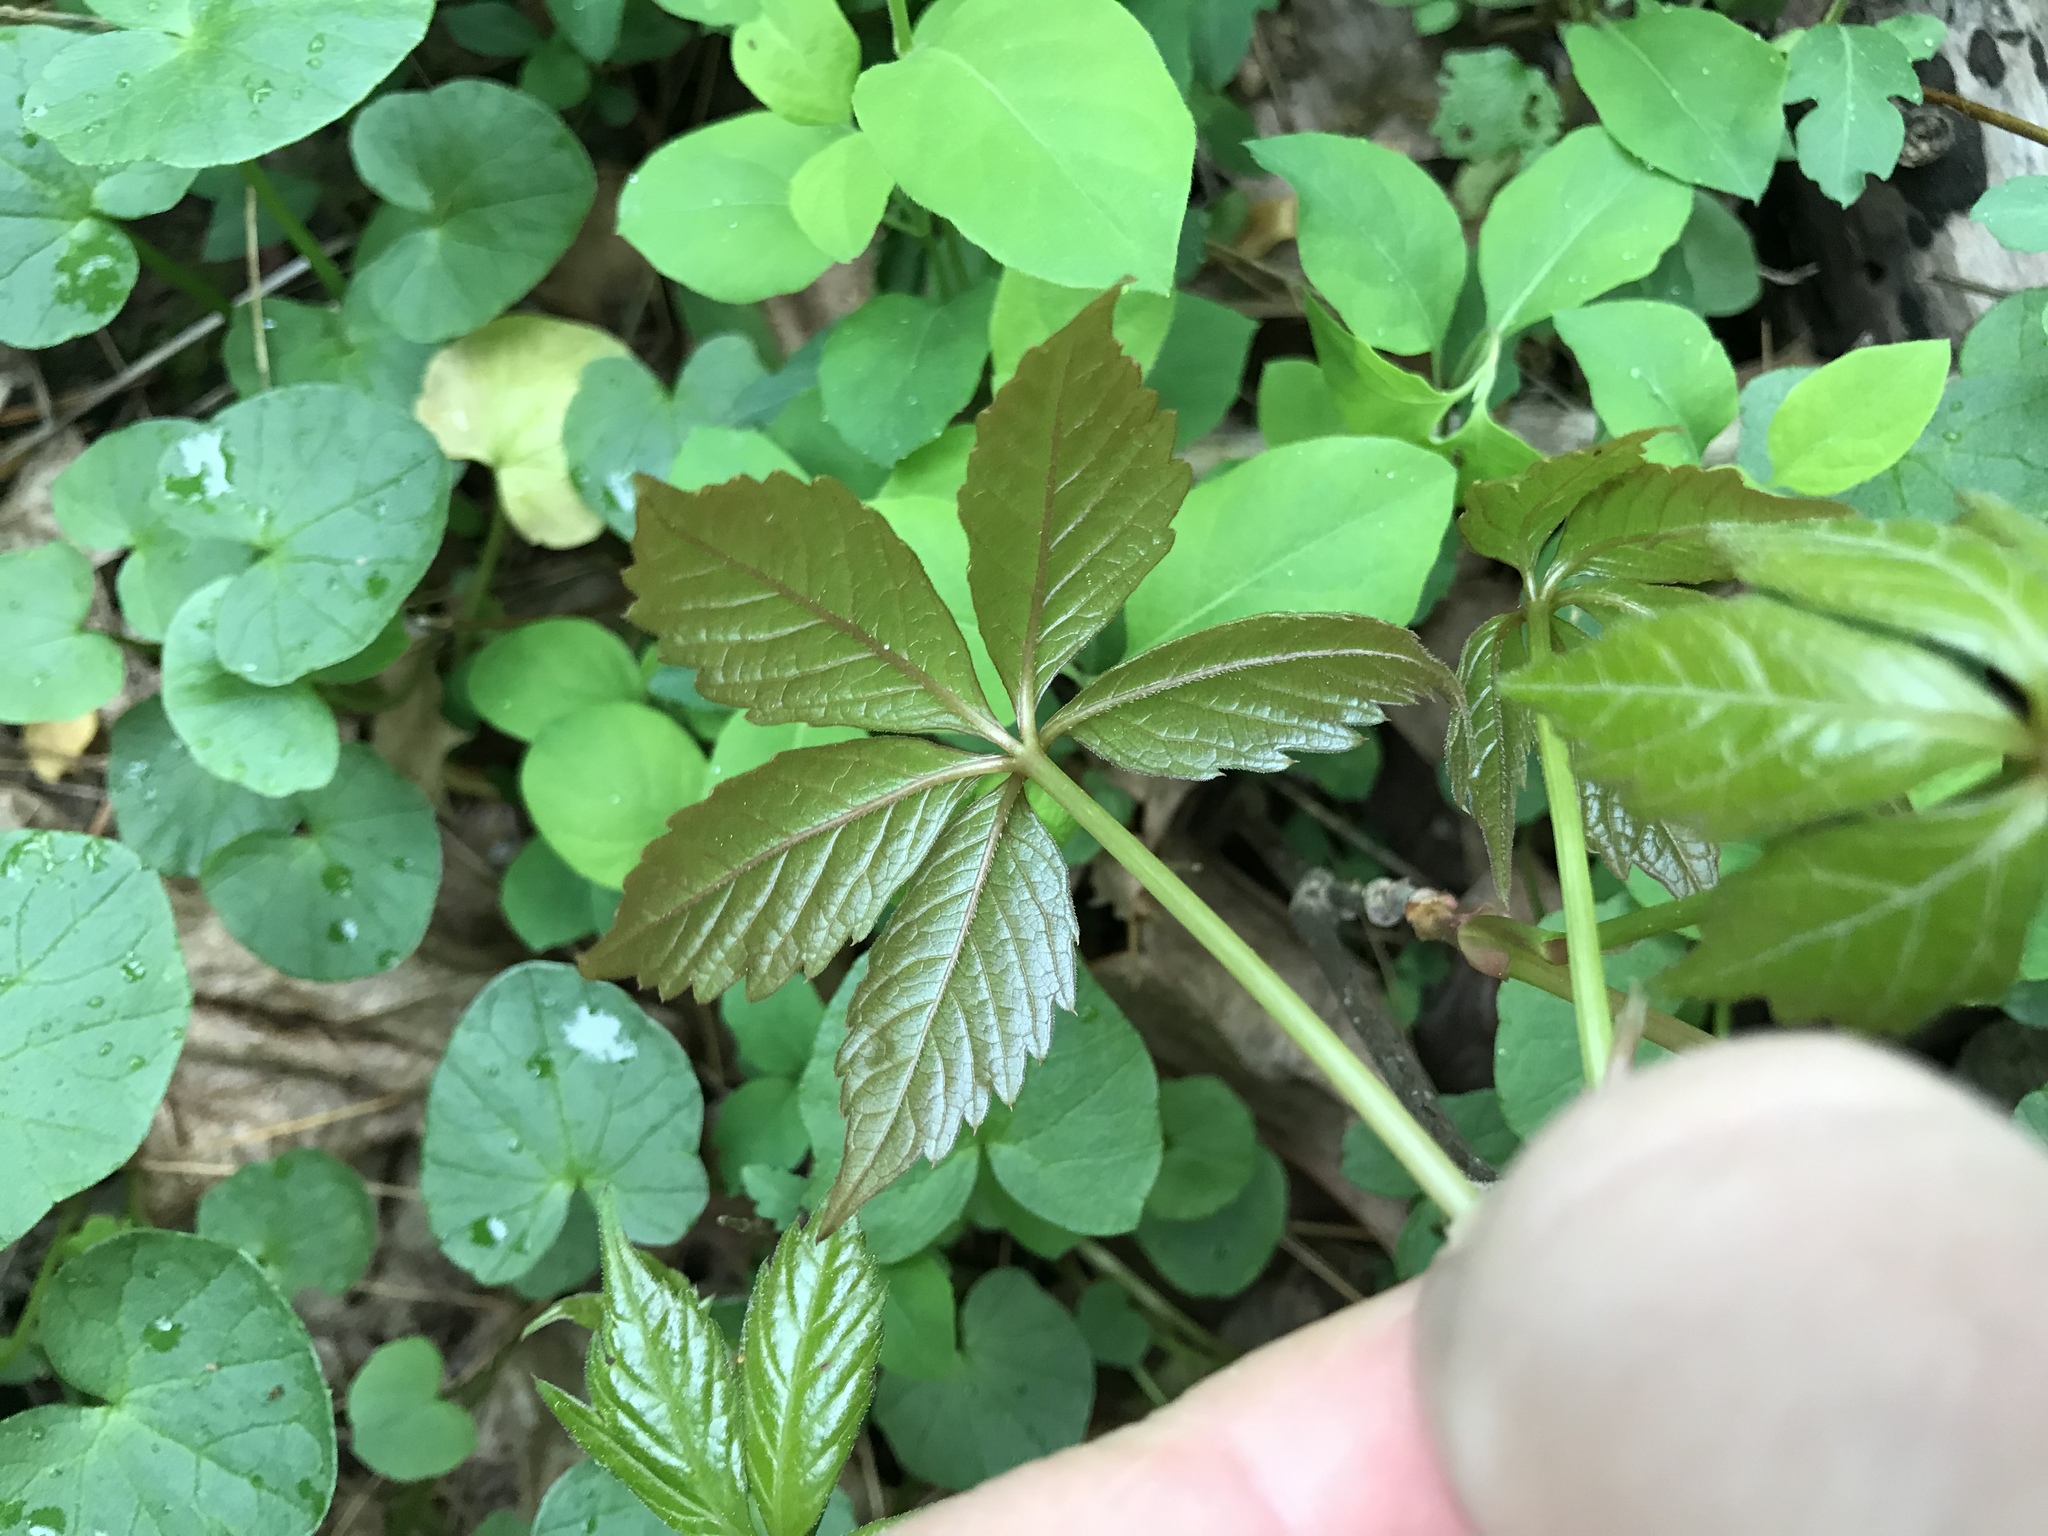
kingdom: Plantae
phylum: Tracheophyta
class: Magnoliopsida
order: Vitales
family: Vitaceae
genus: Parthenocissus
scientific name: Parthenocissus quinquefolia
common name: Virginia-creeper
